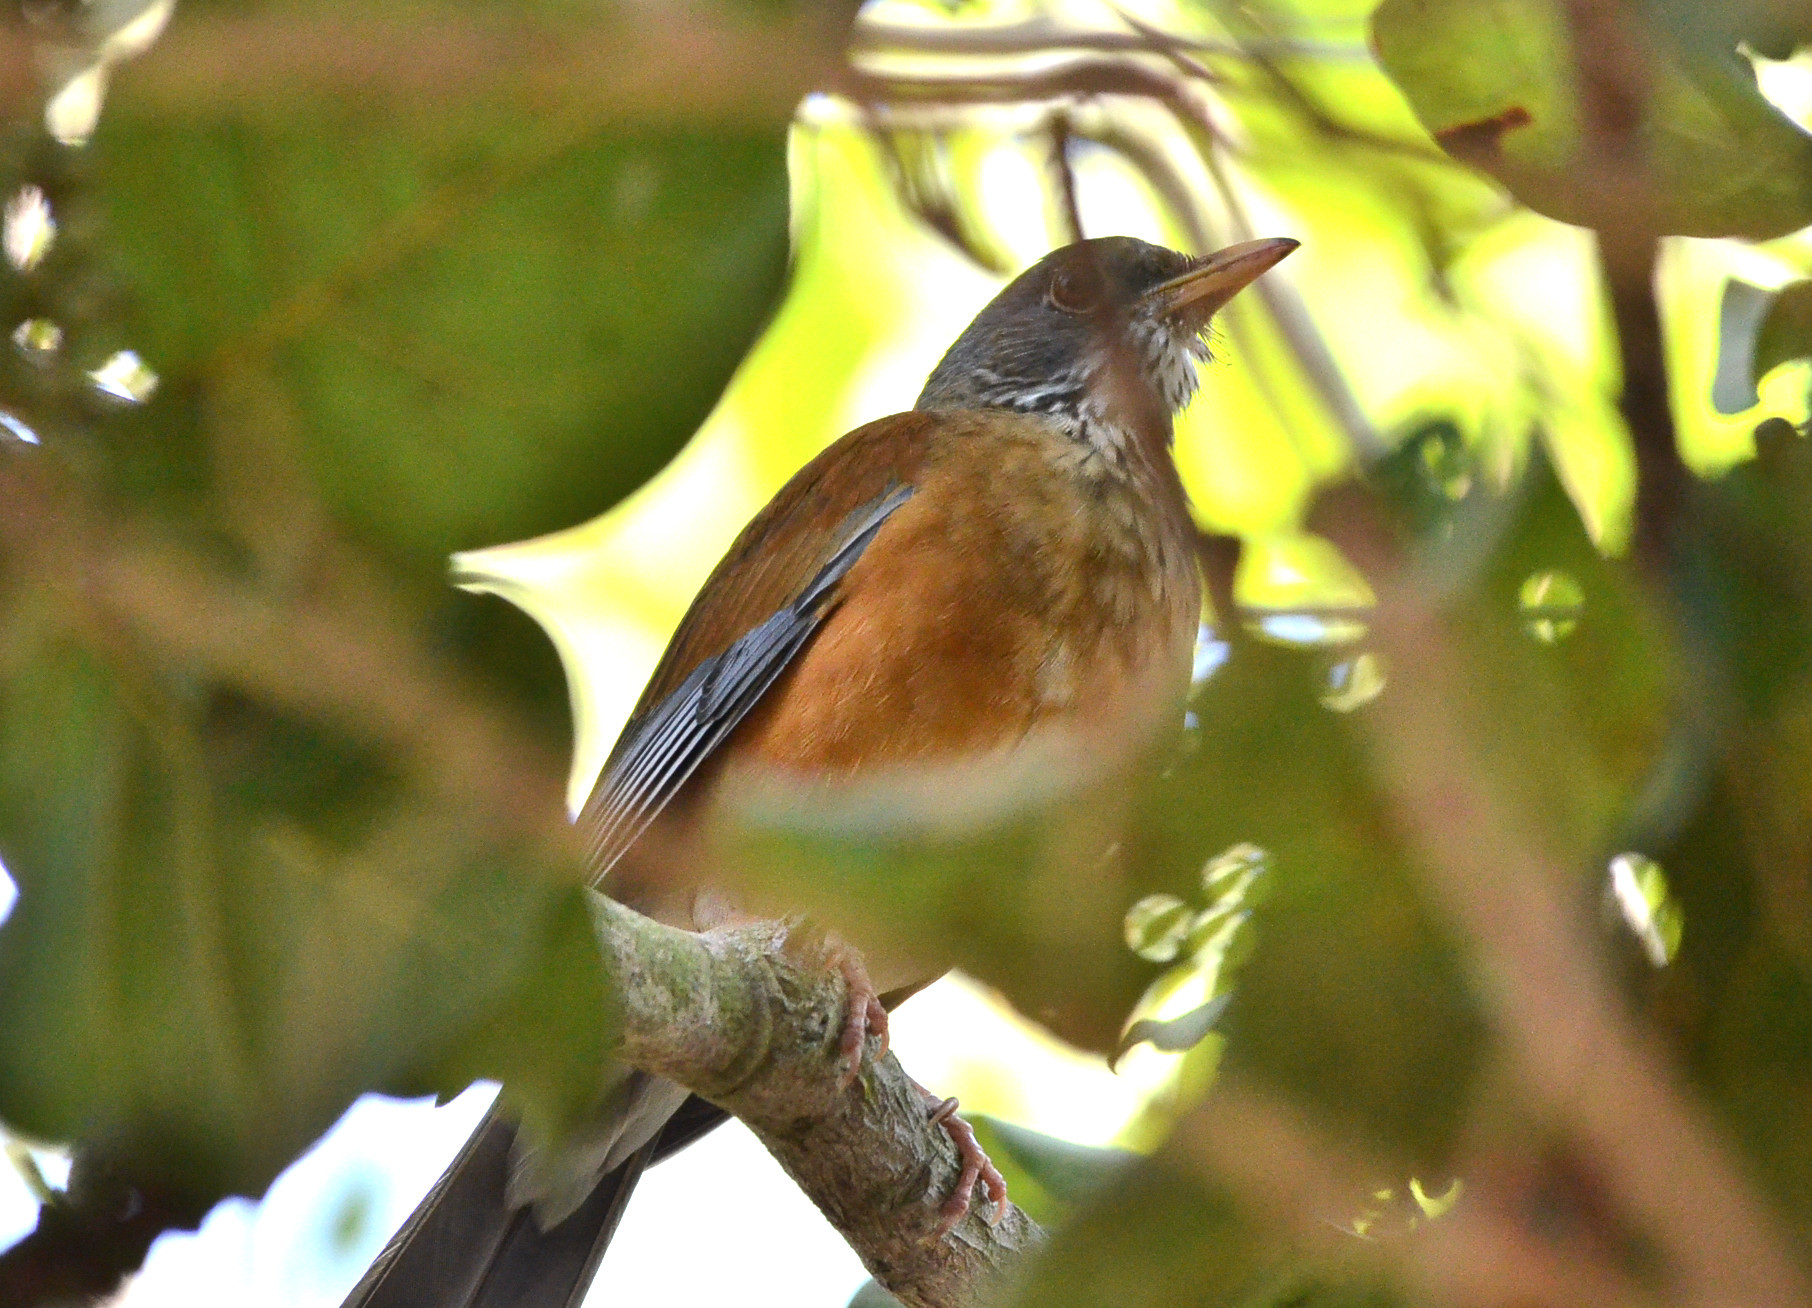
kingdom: Animalia
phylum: Chordata
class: Aves
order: Passeriformes
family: Turdidae
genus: Turdus
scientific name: Turdus rufopalliatus
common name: Rufous-backed robin
